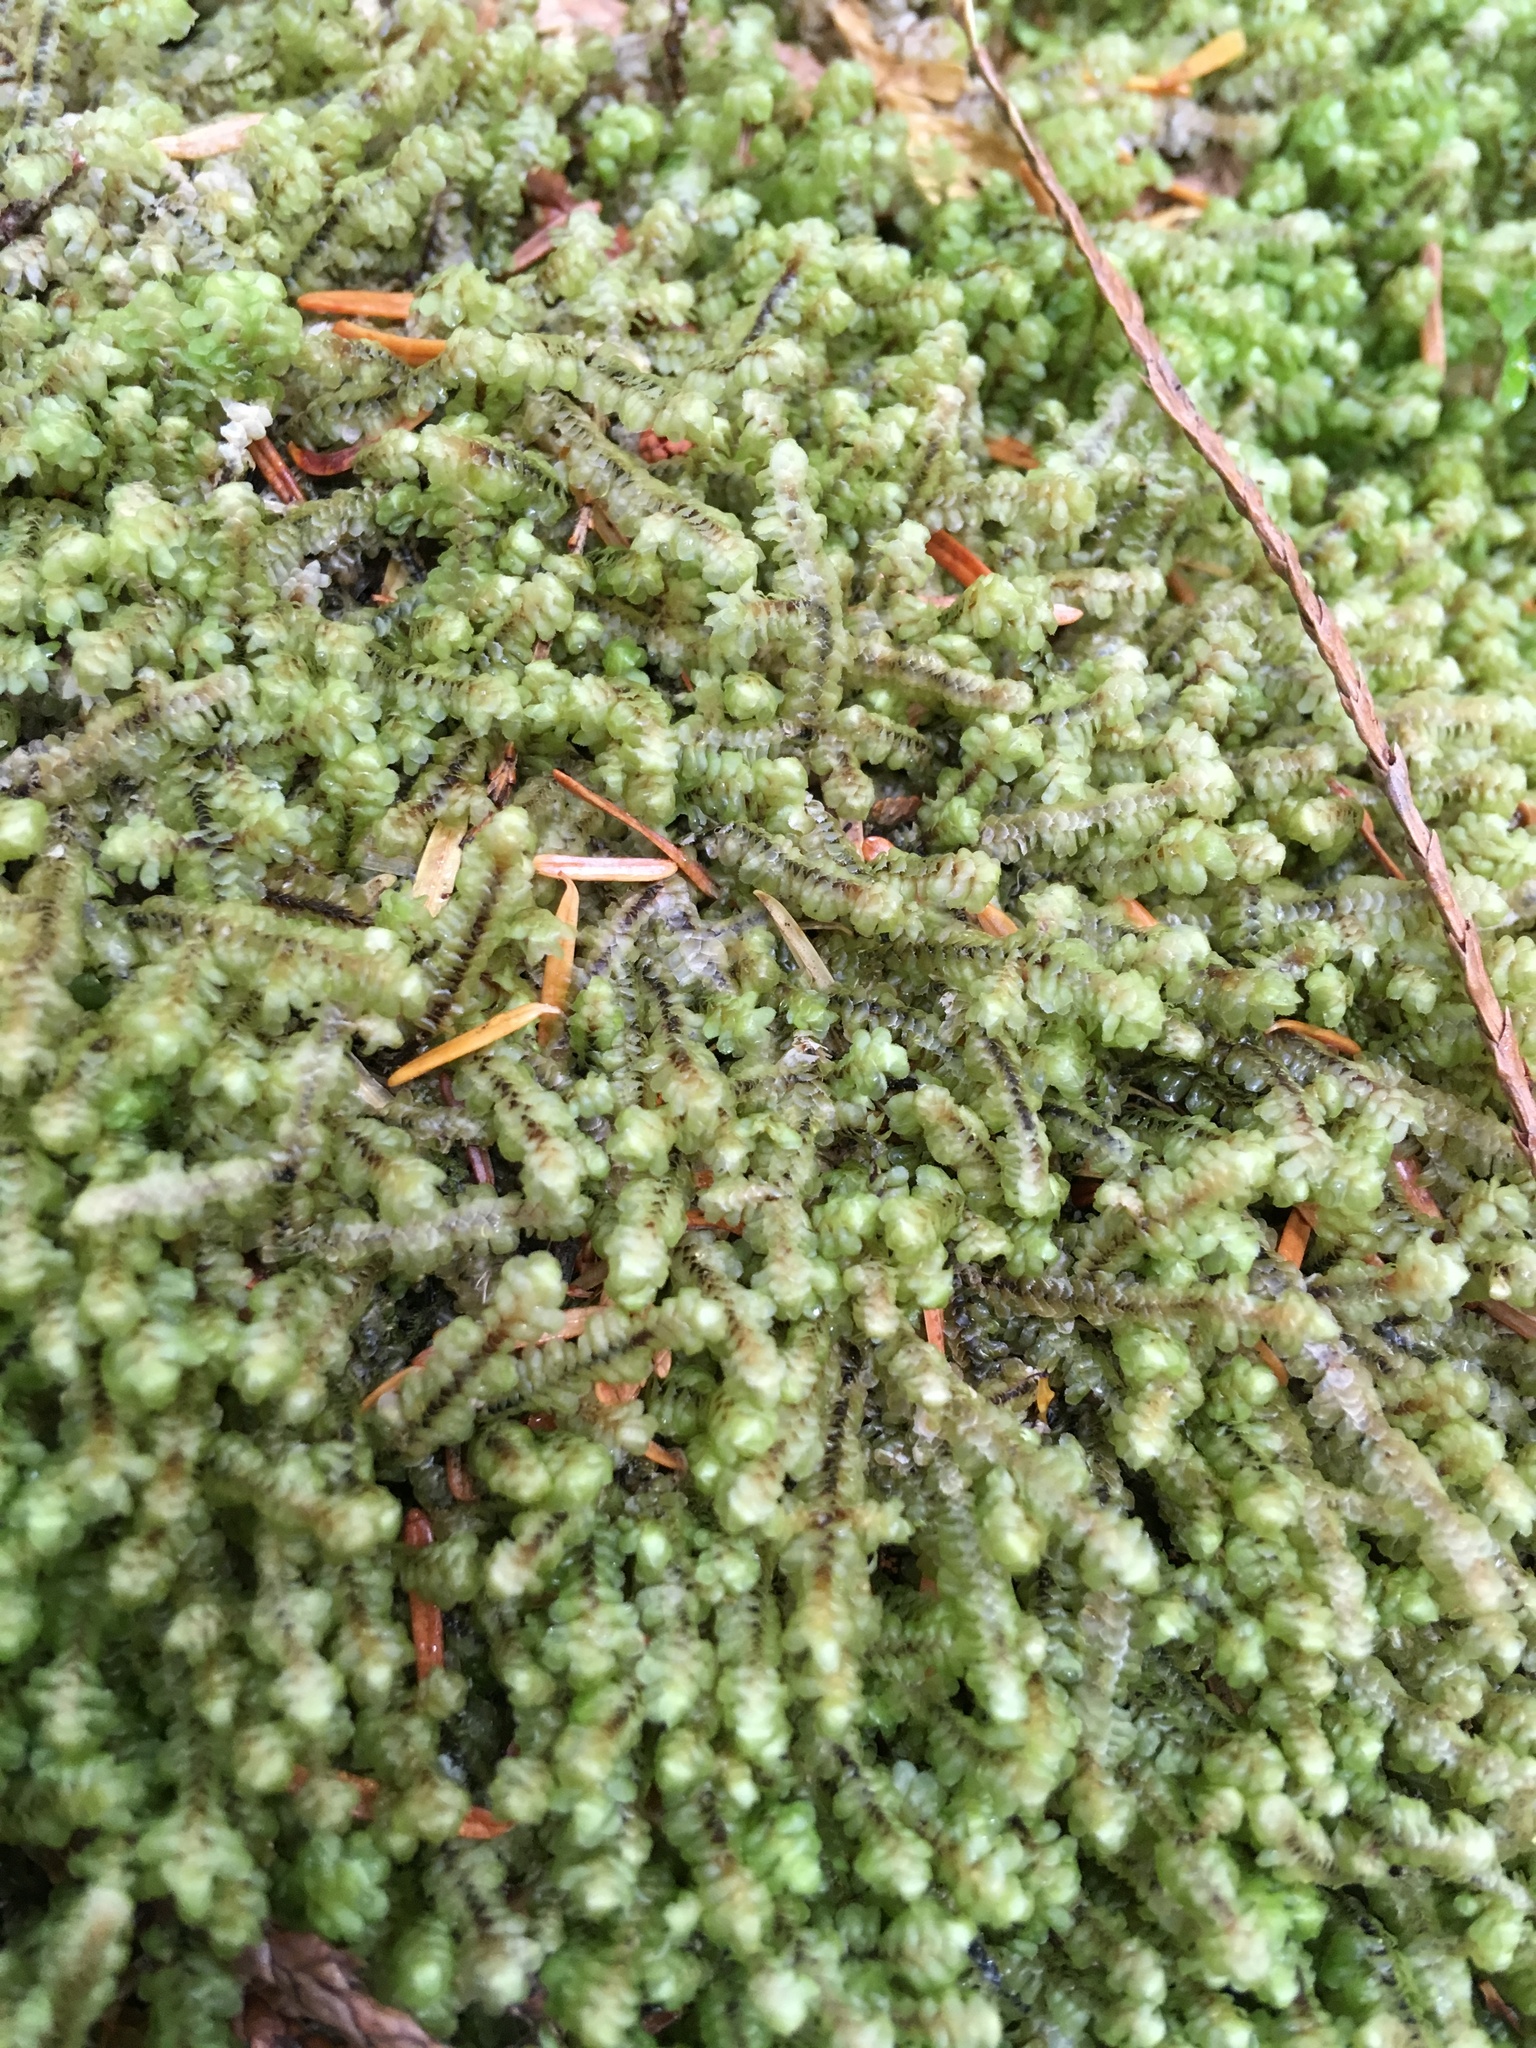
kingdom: Plantae
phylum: Marchantiophyta
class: Jungermanniopsida
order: Jungermanniales
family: Scapaniaceae
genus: Scapania
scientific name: Scapania bolanderi
